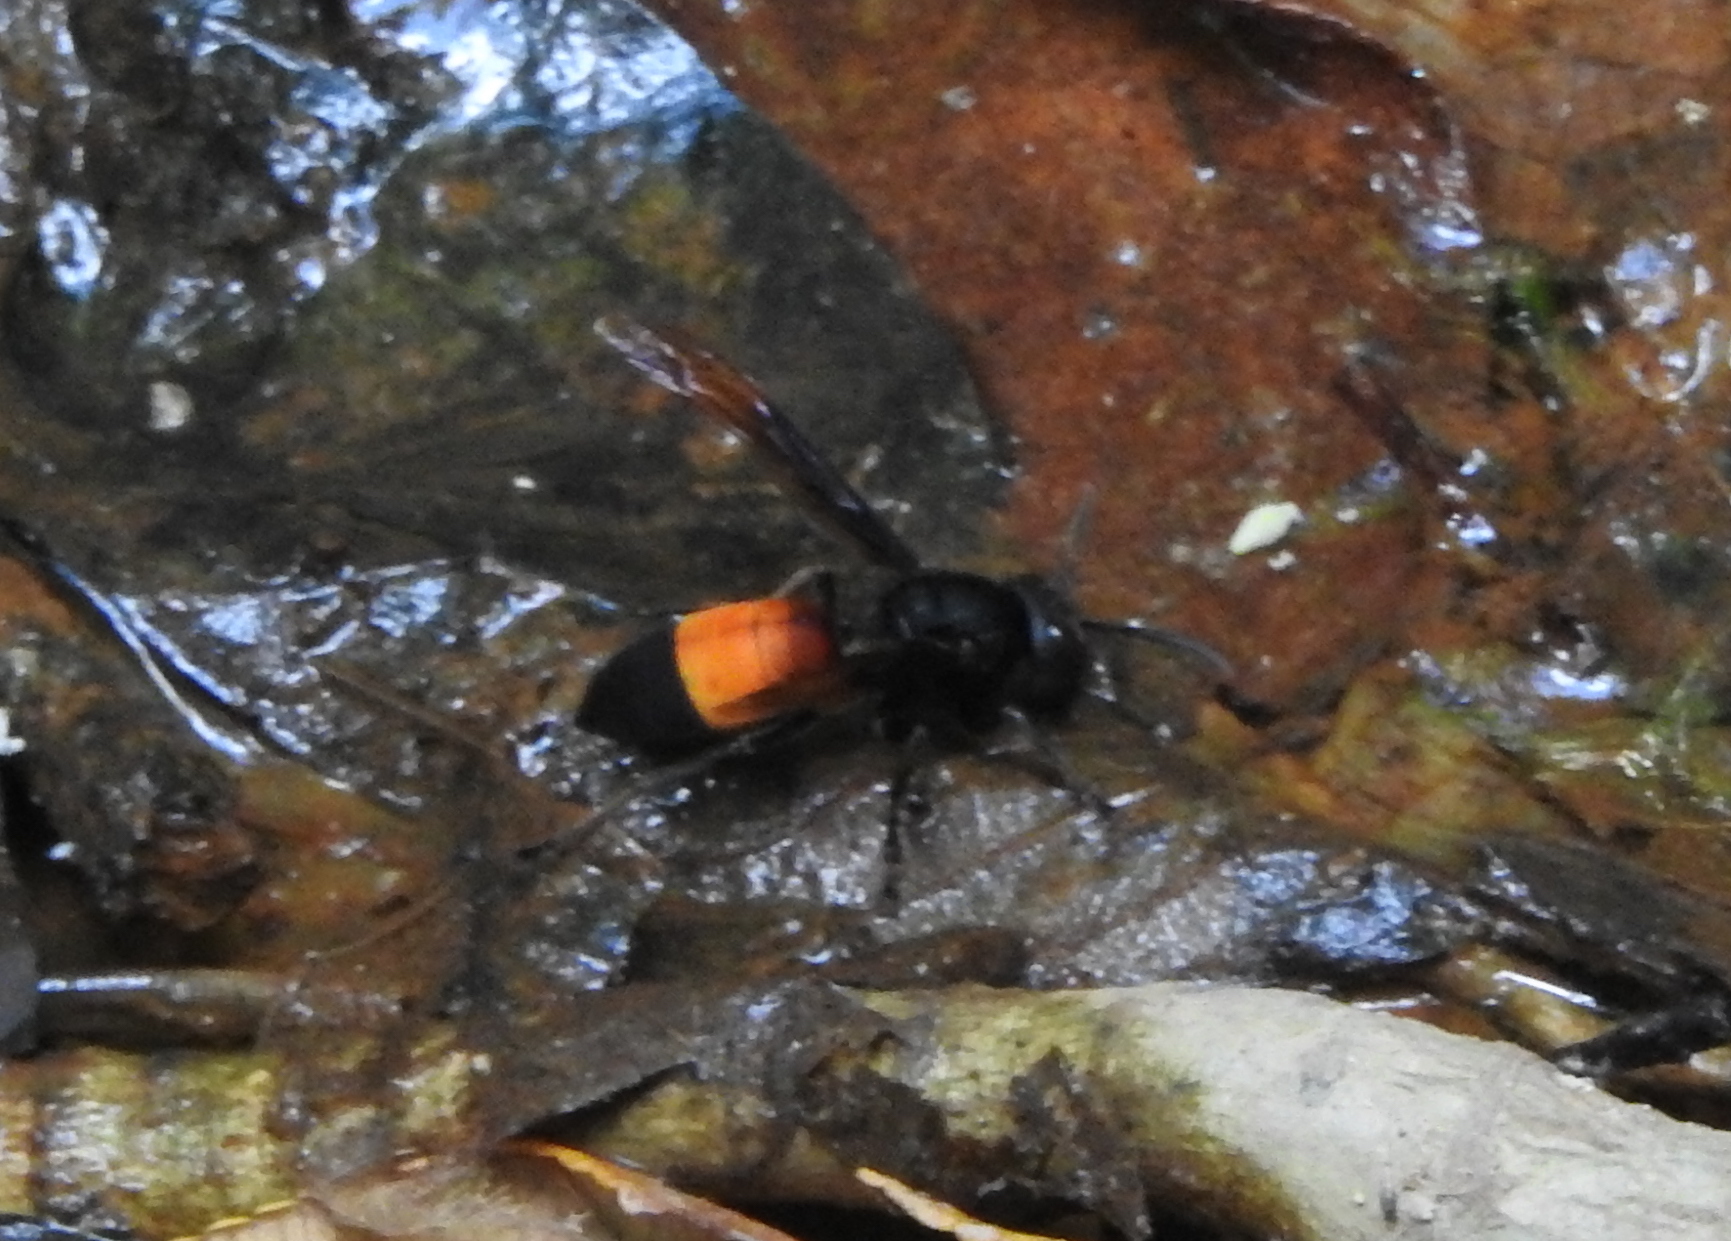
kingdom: Animalia
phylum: Arthropoda
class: Insecta
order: Hymenoptera
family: Vespidae
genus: Vespa
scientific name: Vespa affinis
